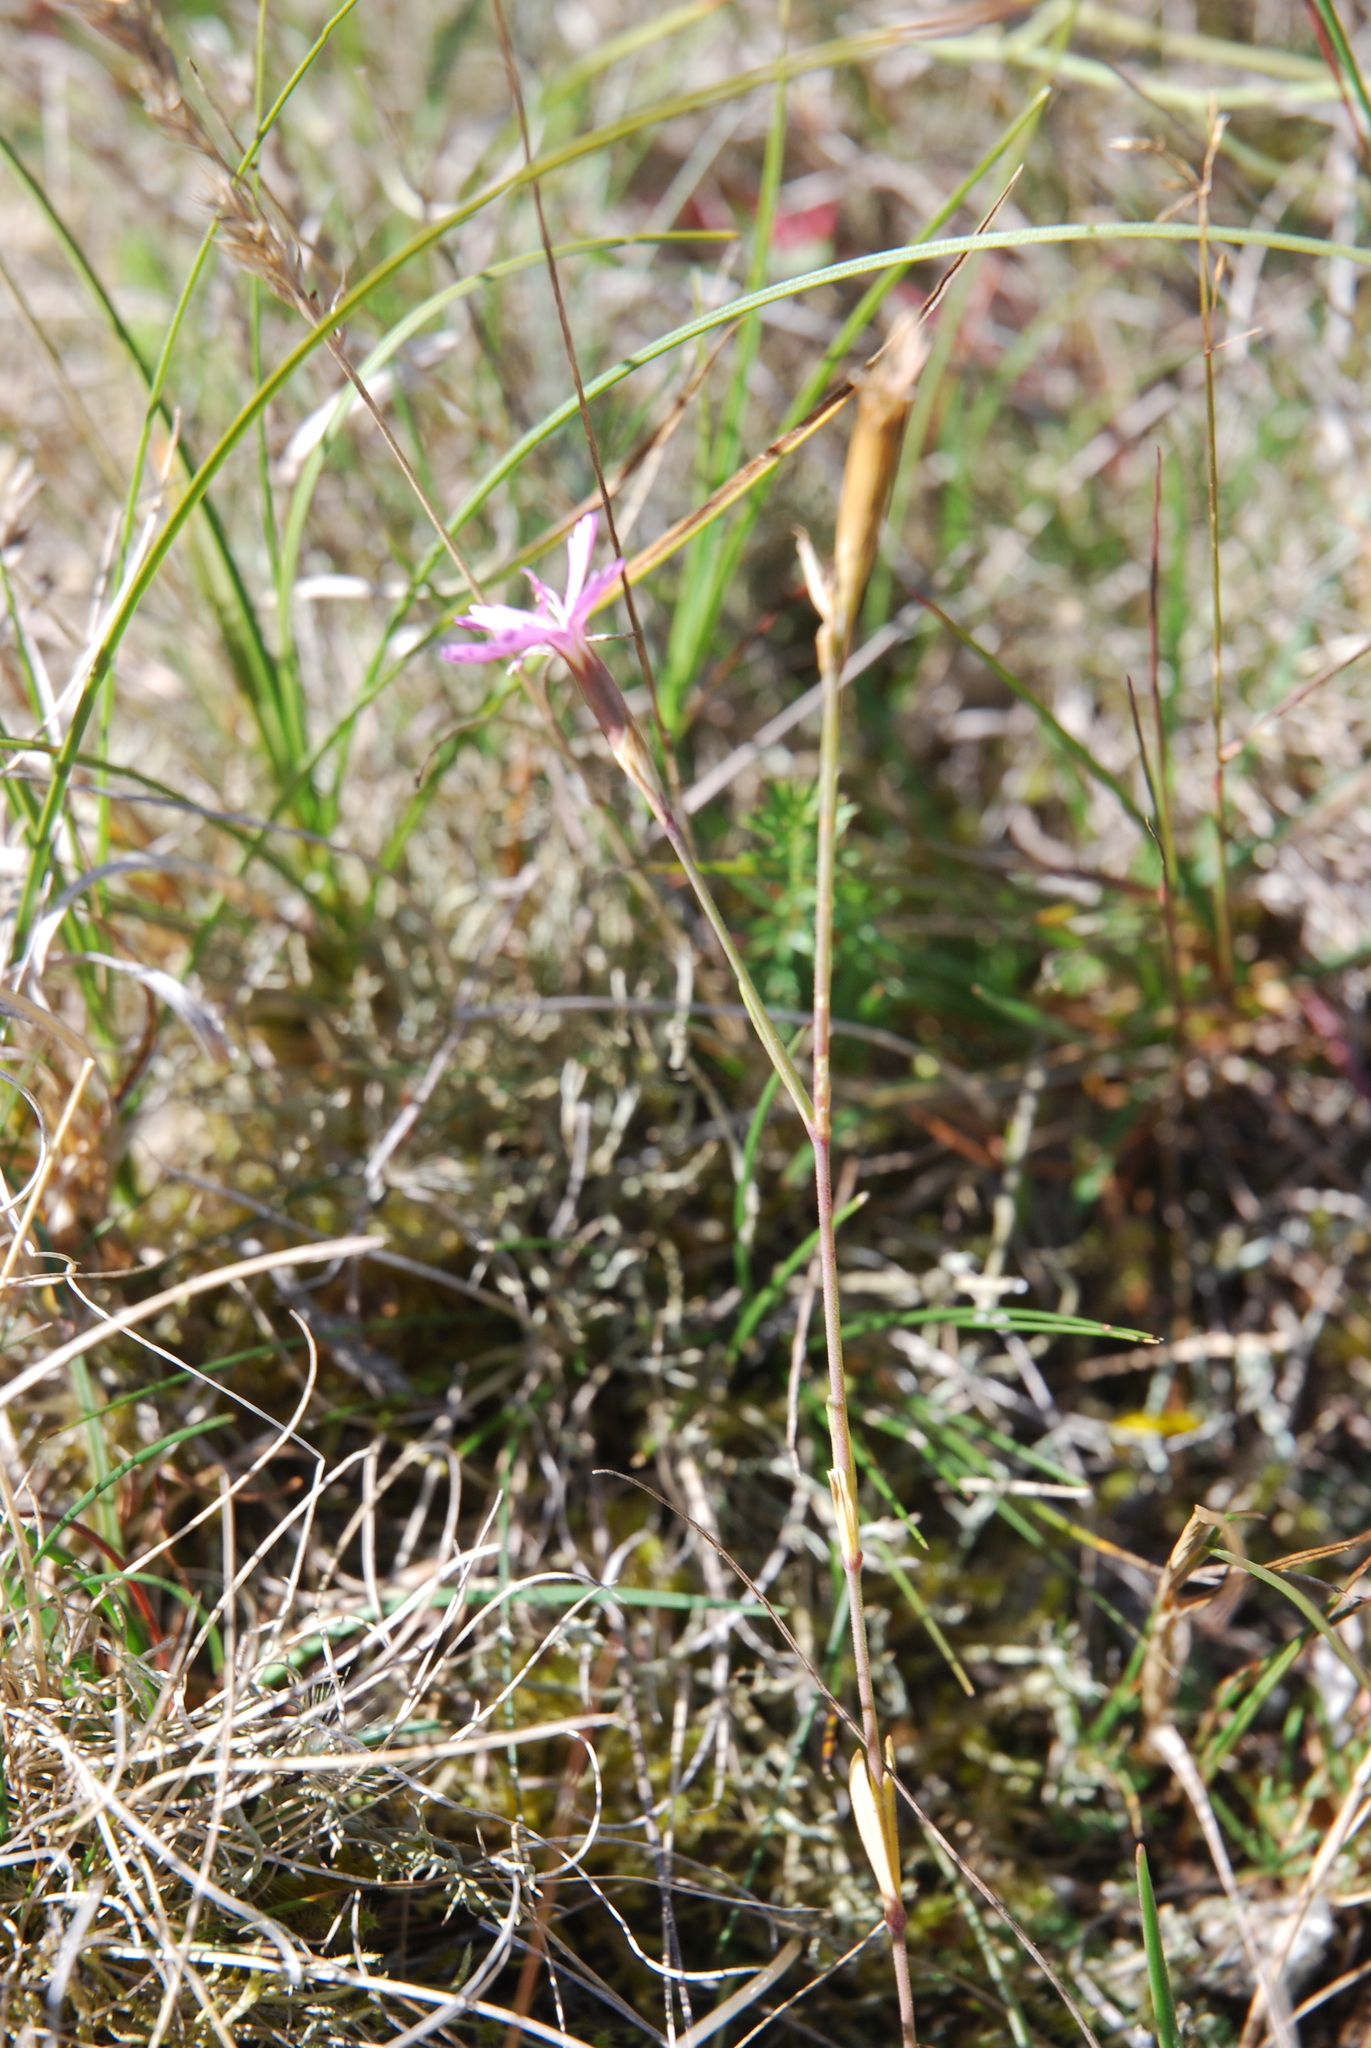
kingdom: Plantae
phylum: Tracheophyta
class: Magnoliopsida
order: Caryophyllales
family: Caryophyllaceae
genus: Dianthus
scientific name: Dianthus deltoides
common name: Maiden pink
